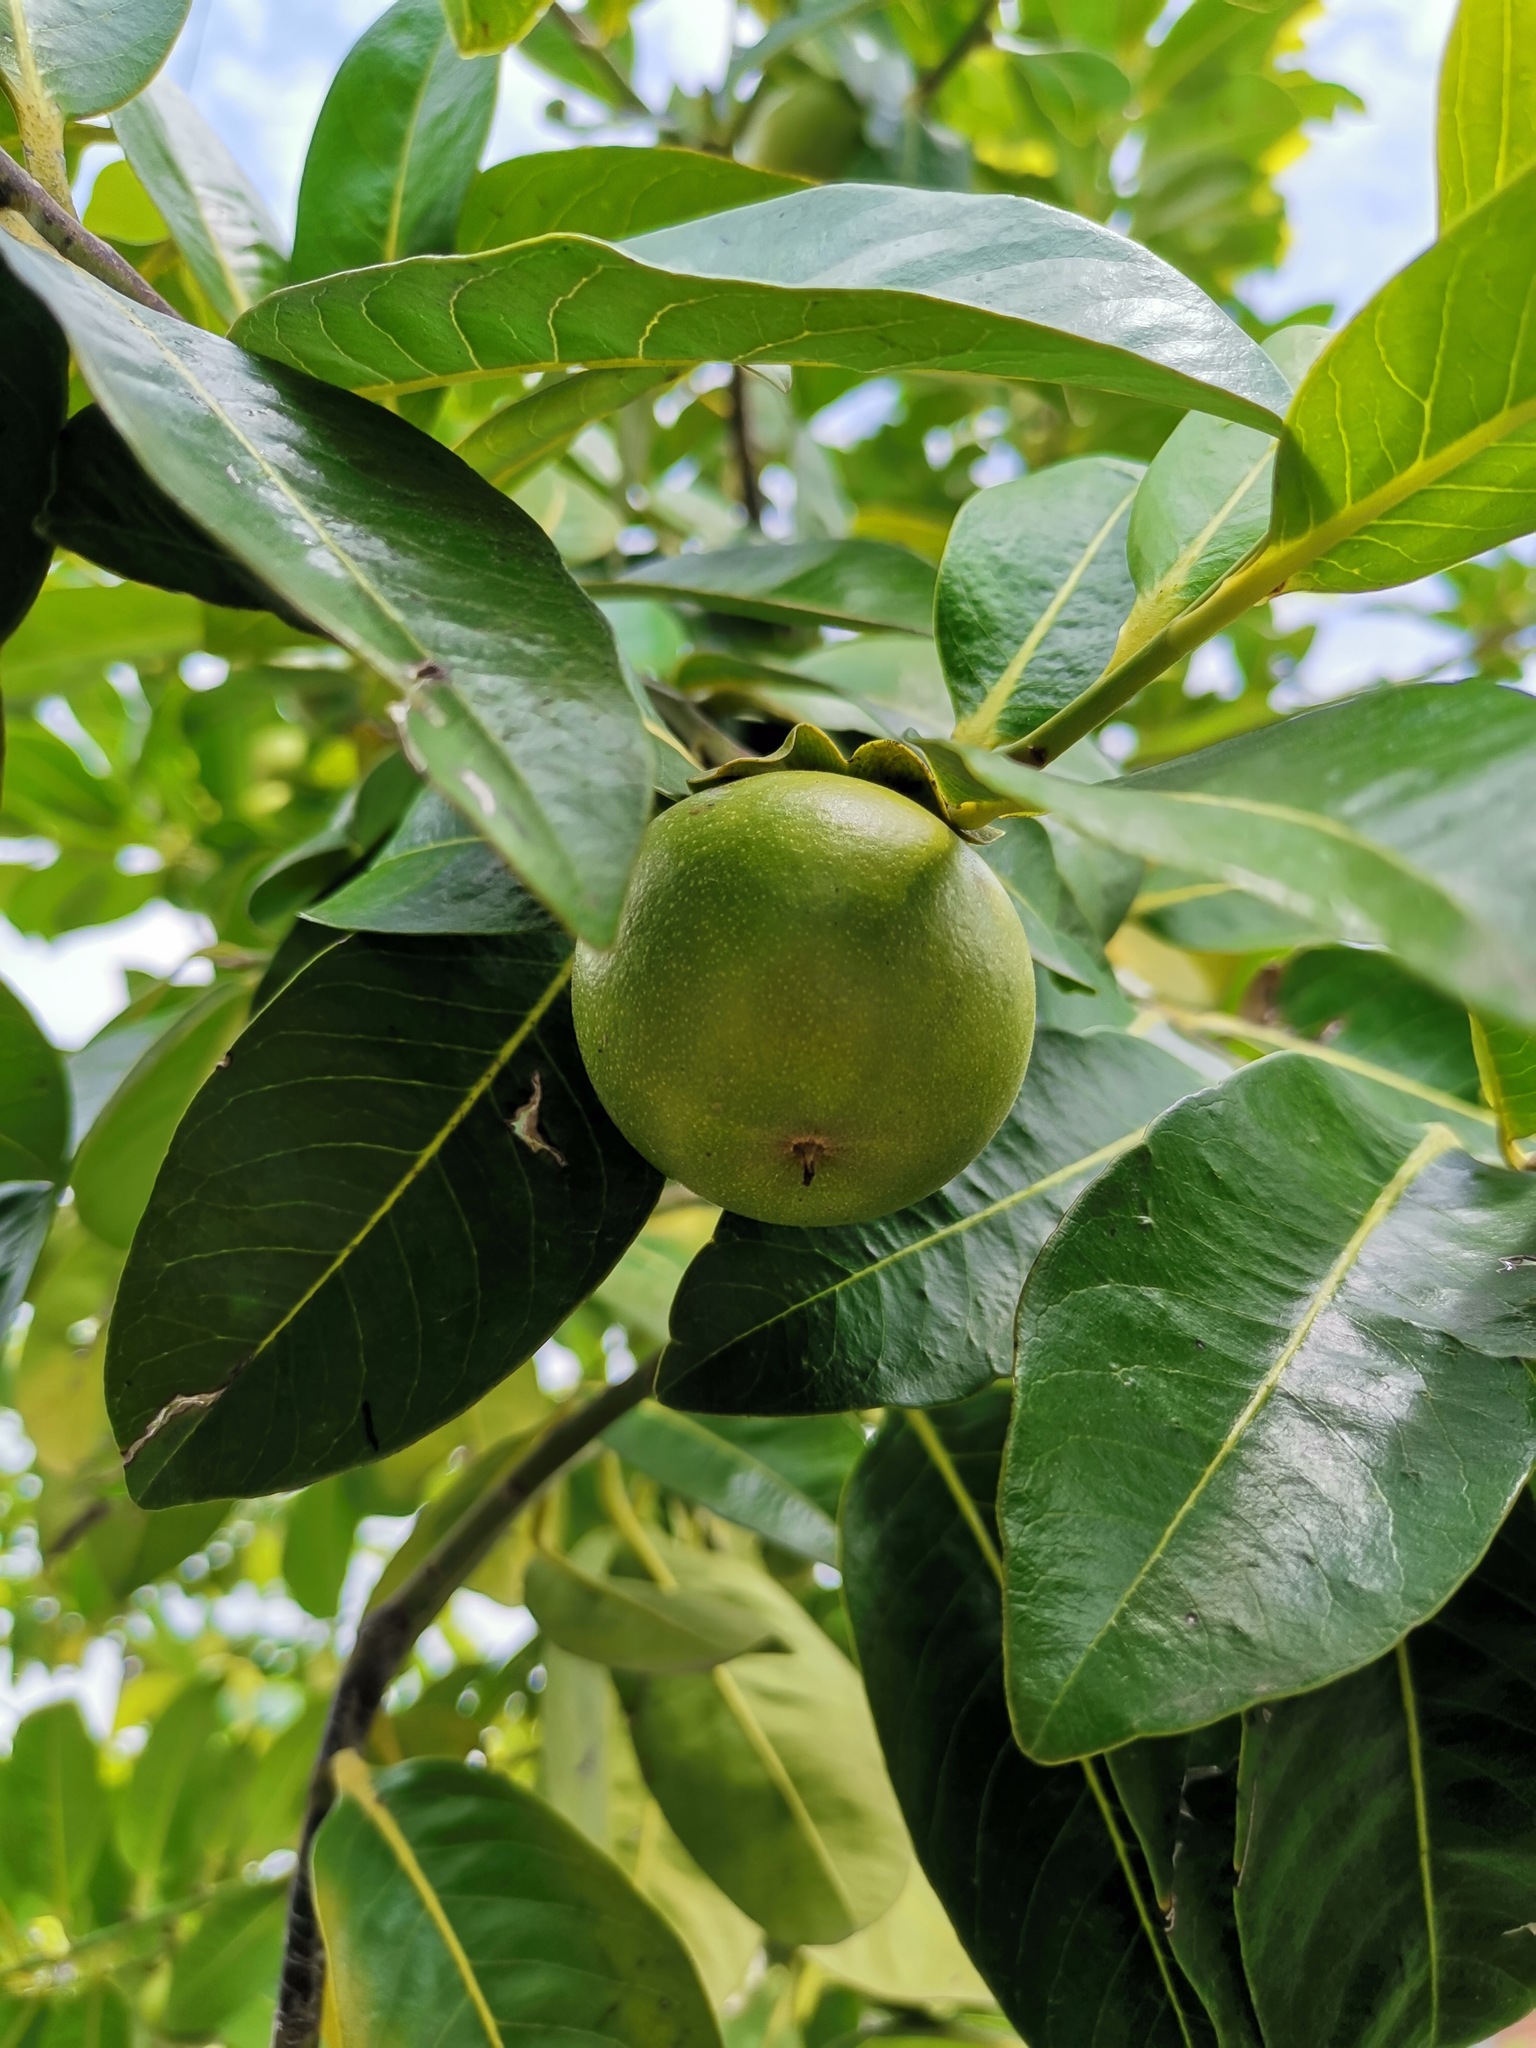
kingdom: Plantae
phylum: Tracheophyta
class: Magnoliopsida
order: Ericales
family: Ebenaceae
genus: Diospyros
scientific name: Diospyros nigra
